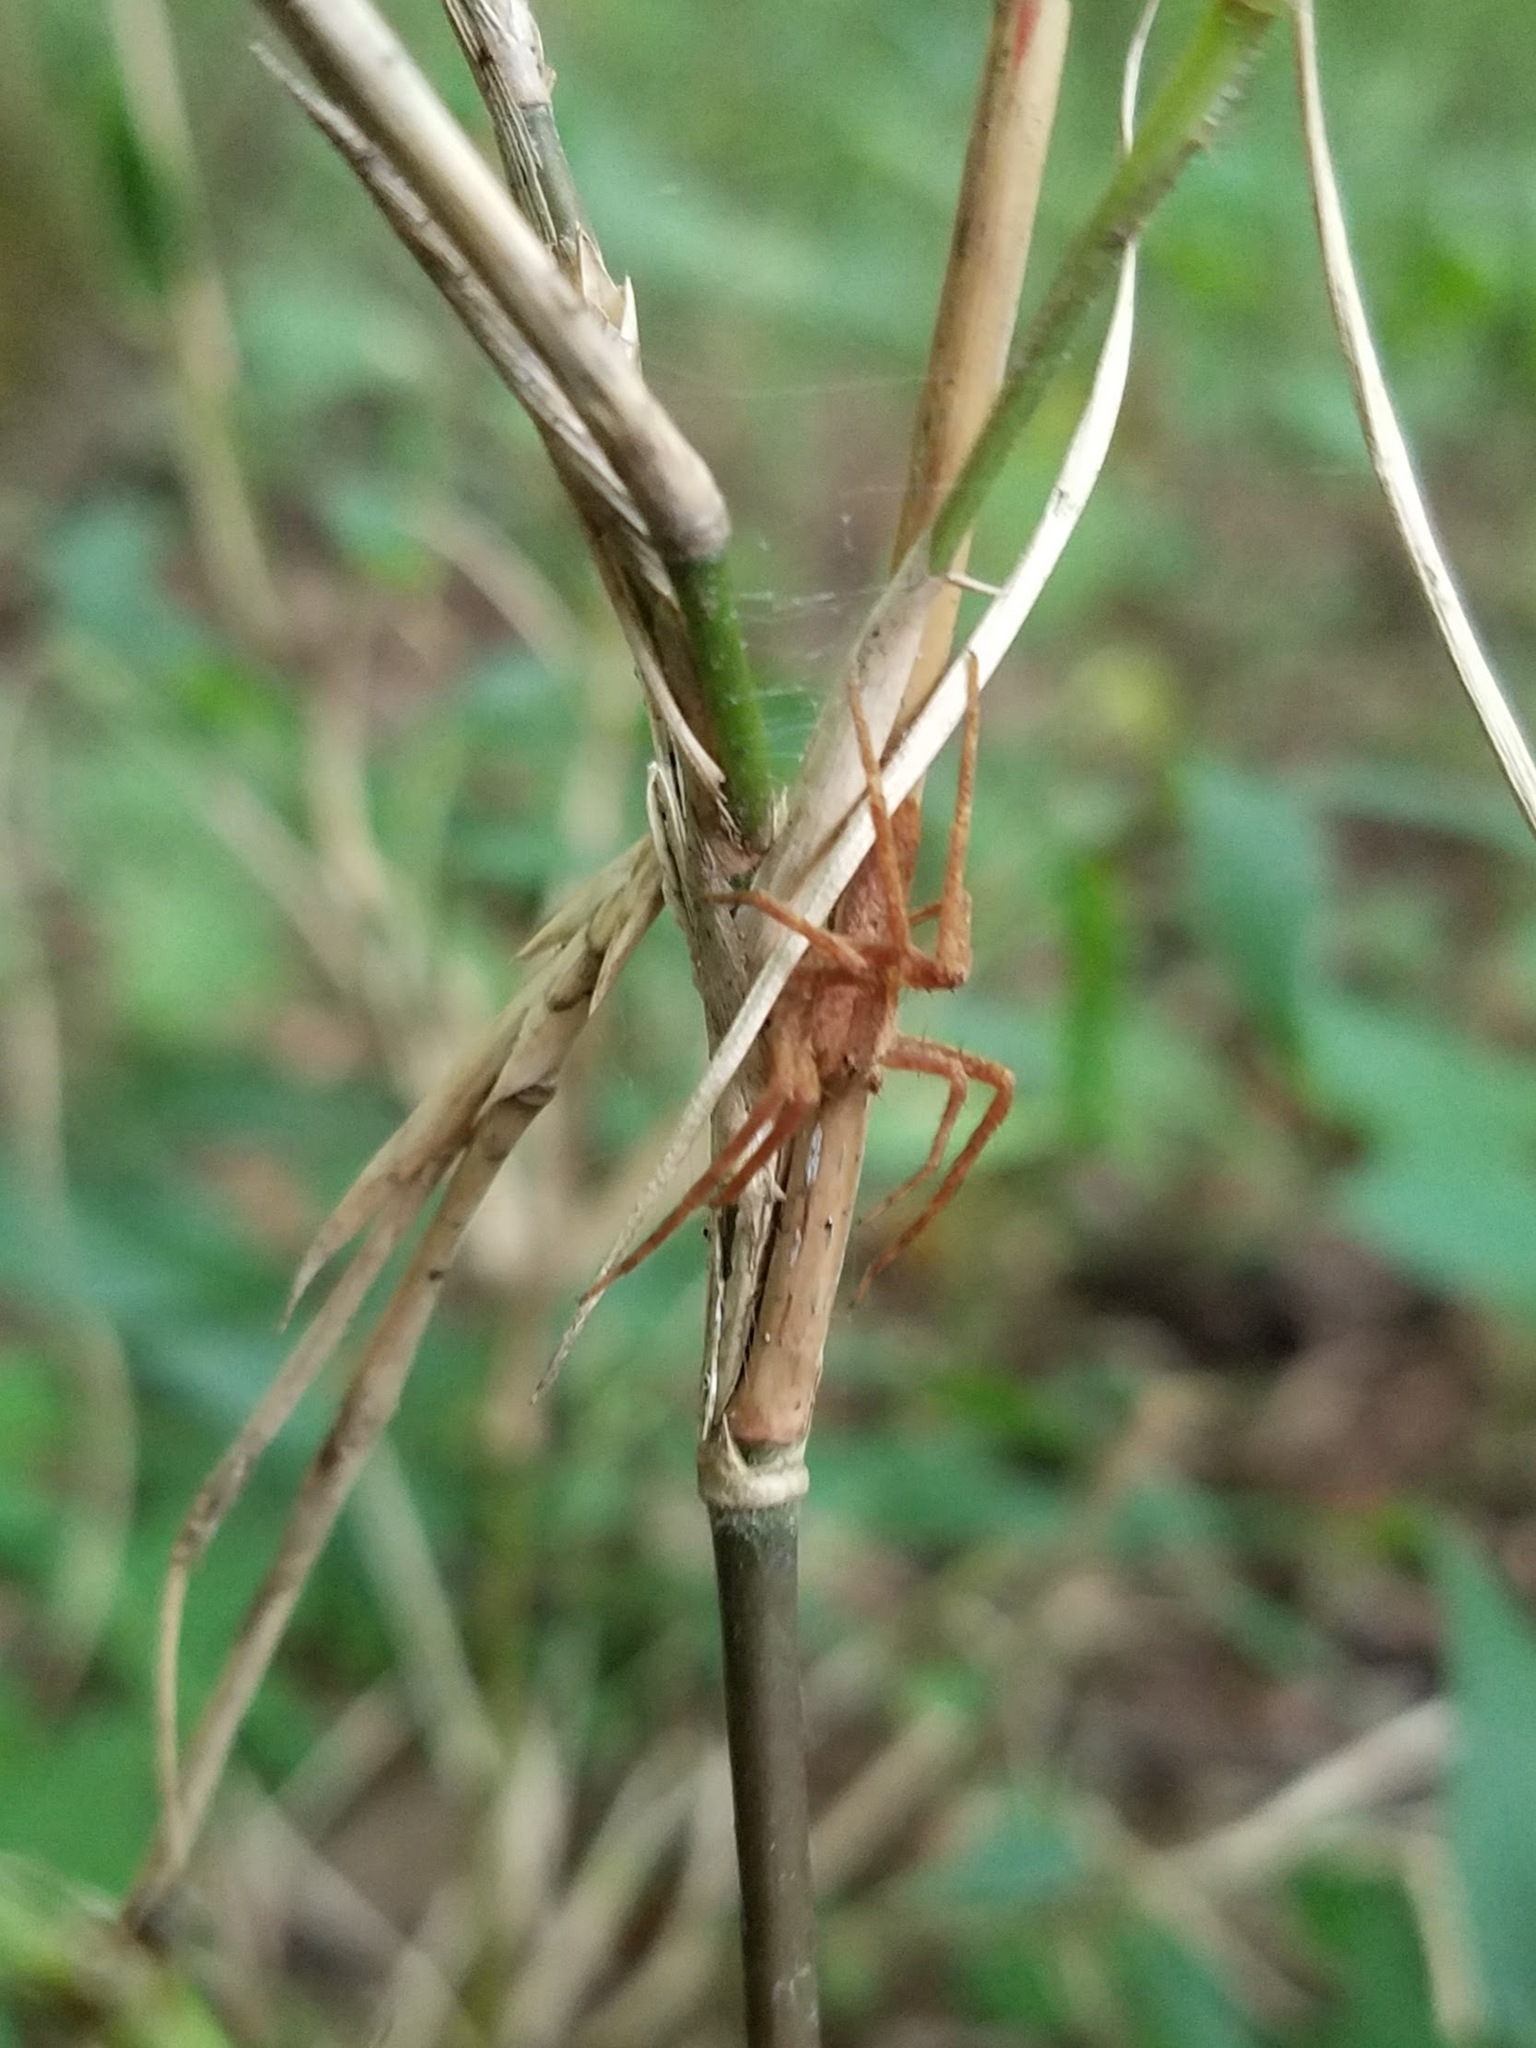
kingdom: Animalia
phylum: Arthropoda
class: Arachnida
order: Araneae
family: Pisauridae
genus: Pisaurina
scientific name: Pisaurina mira
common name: American nursery web spider
